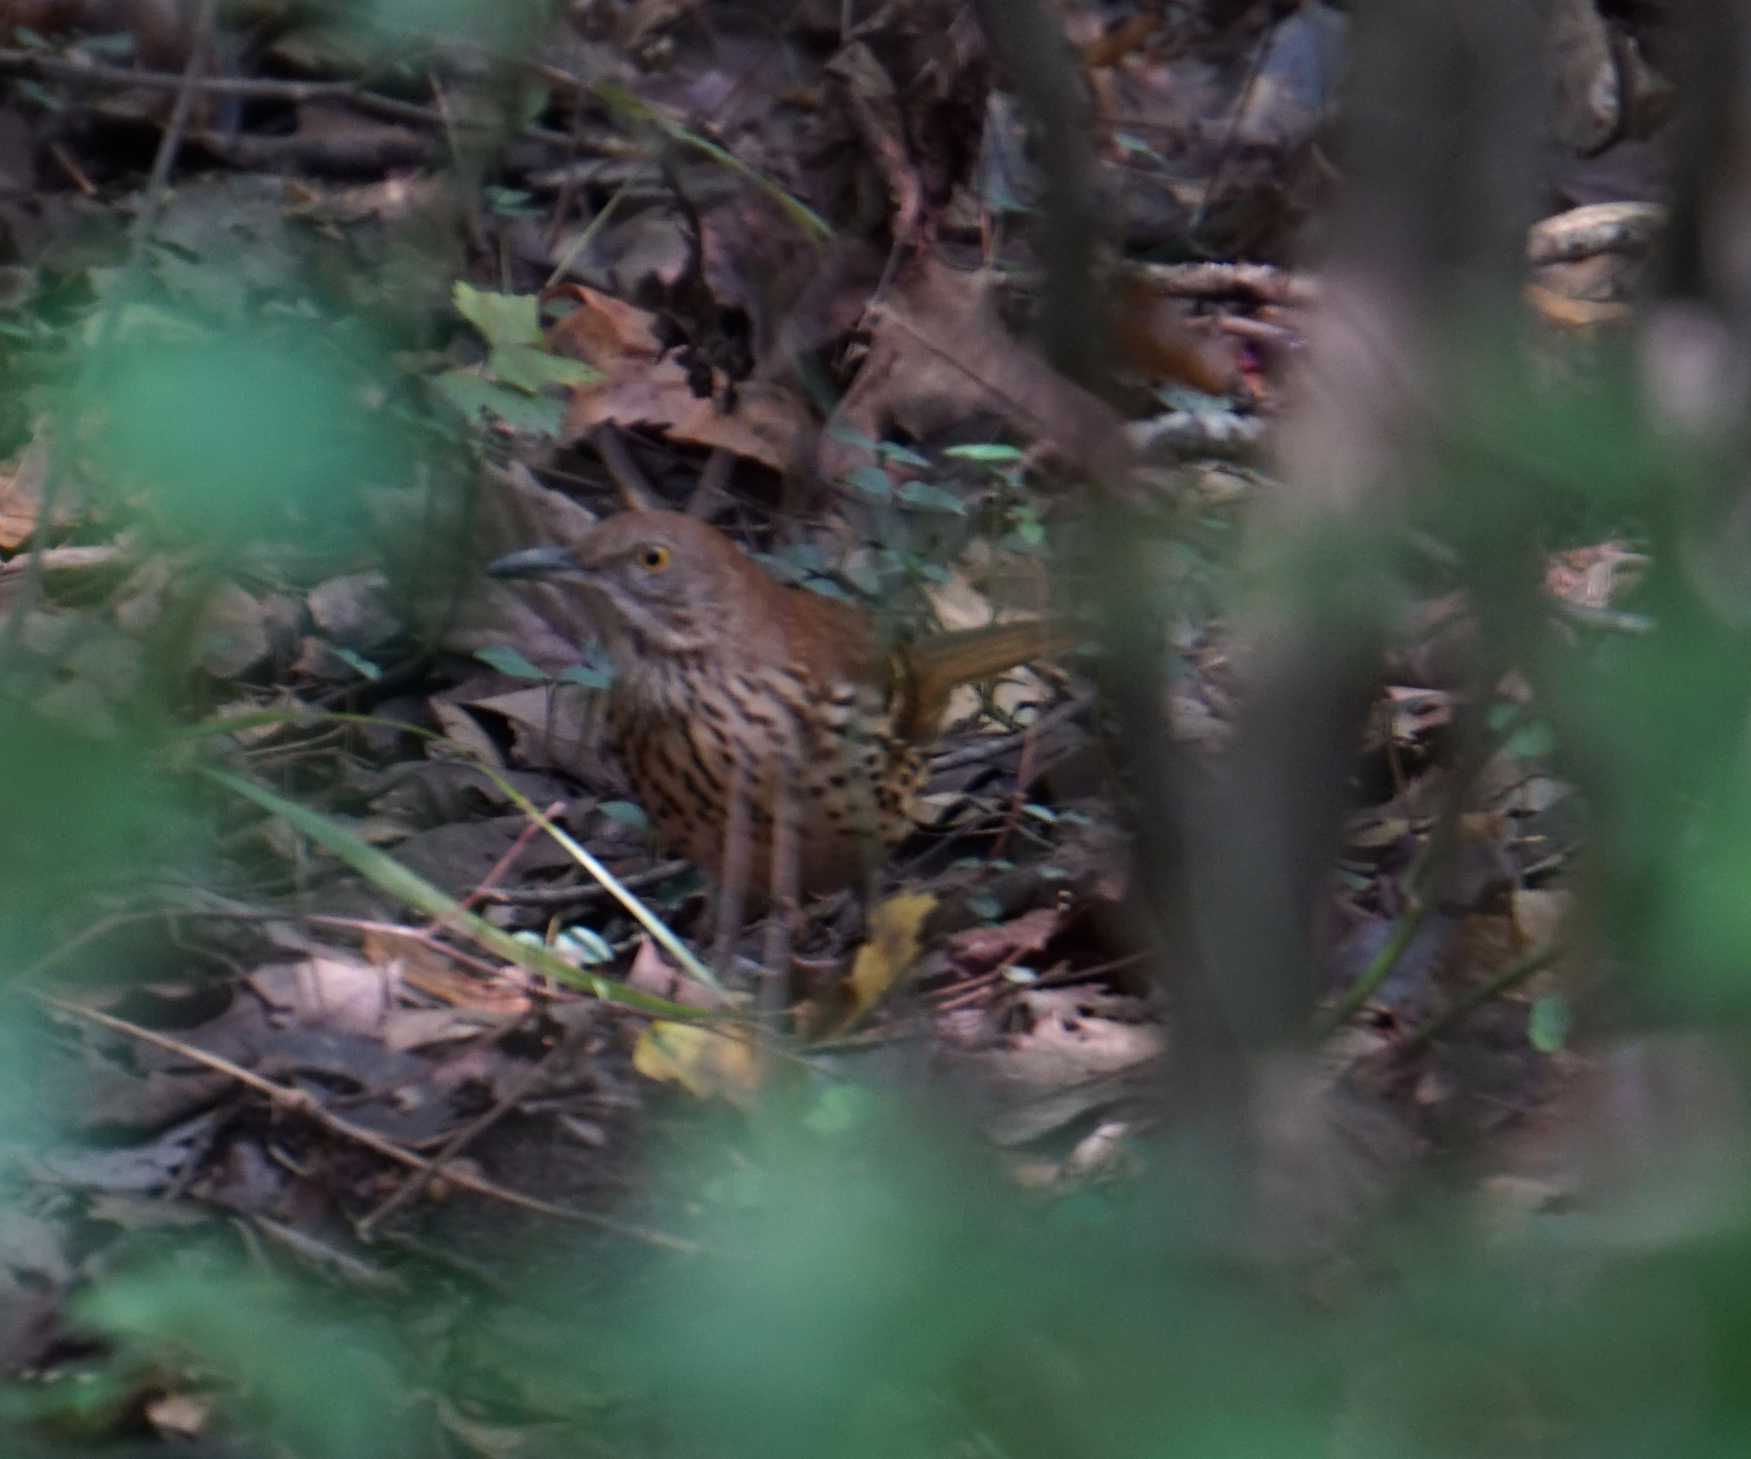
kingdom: Animalia
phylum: Chordata
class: Aves
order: Passeriformes
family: Mimidae
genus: Toxostoma
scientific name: Toxostoma rufum
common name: Brown thrasher
